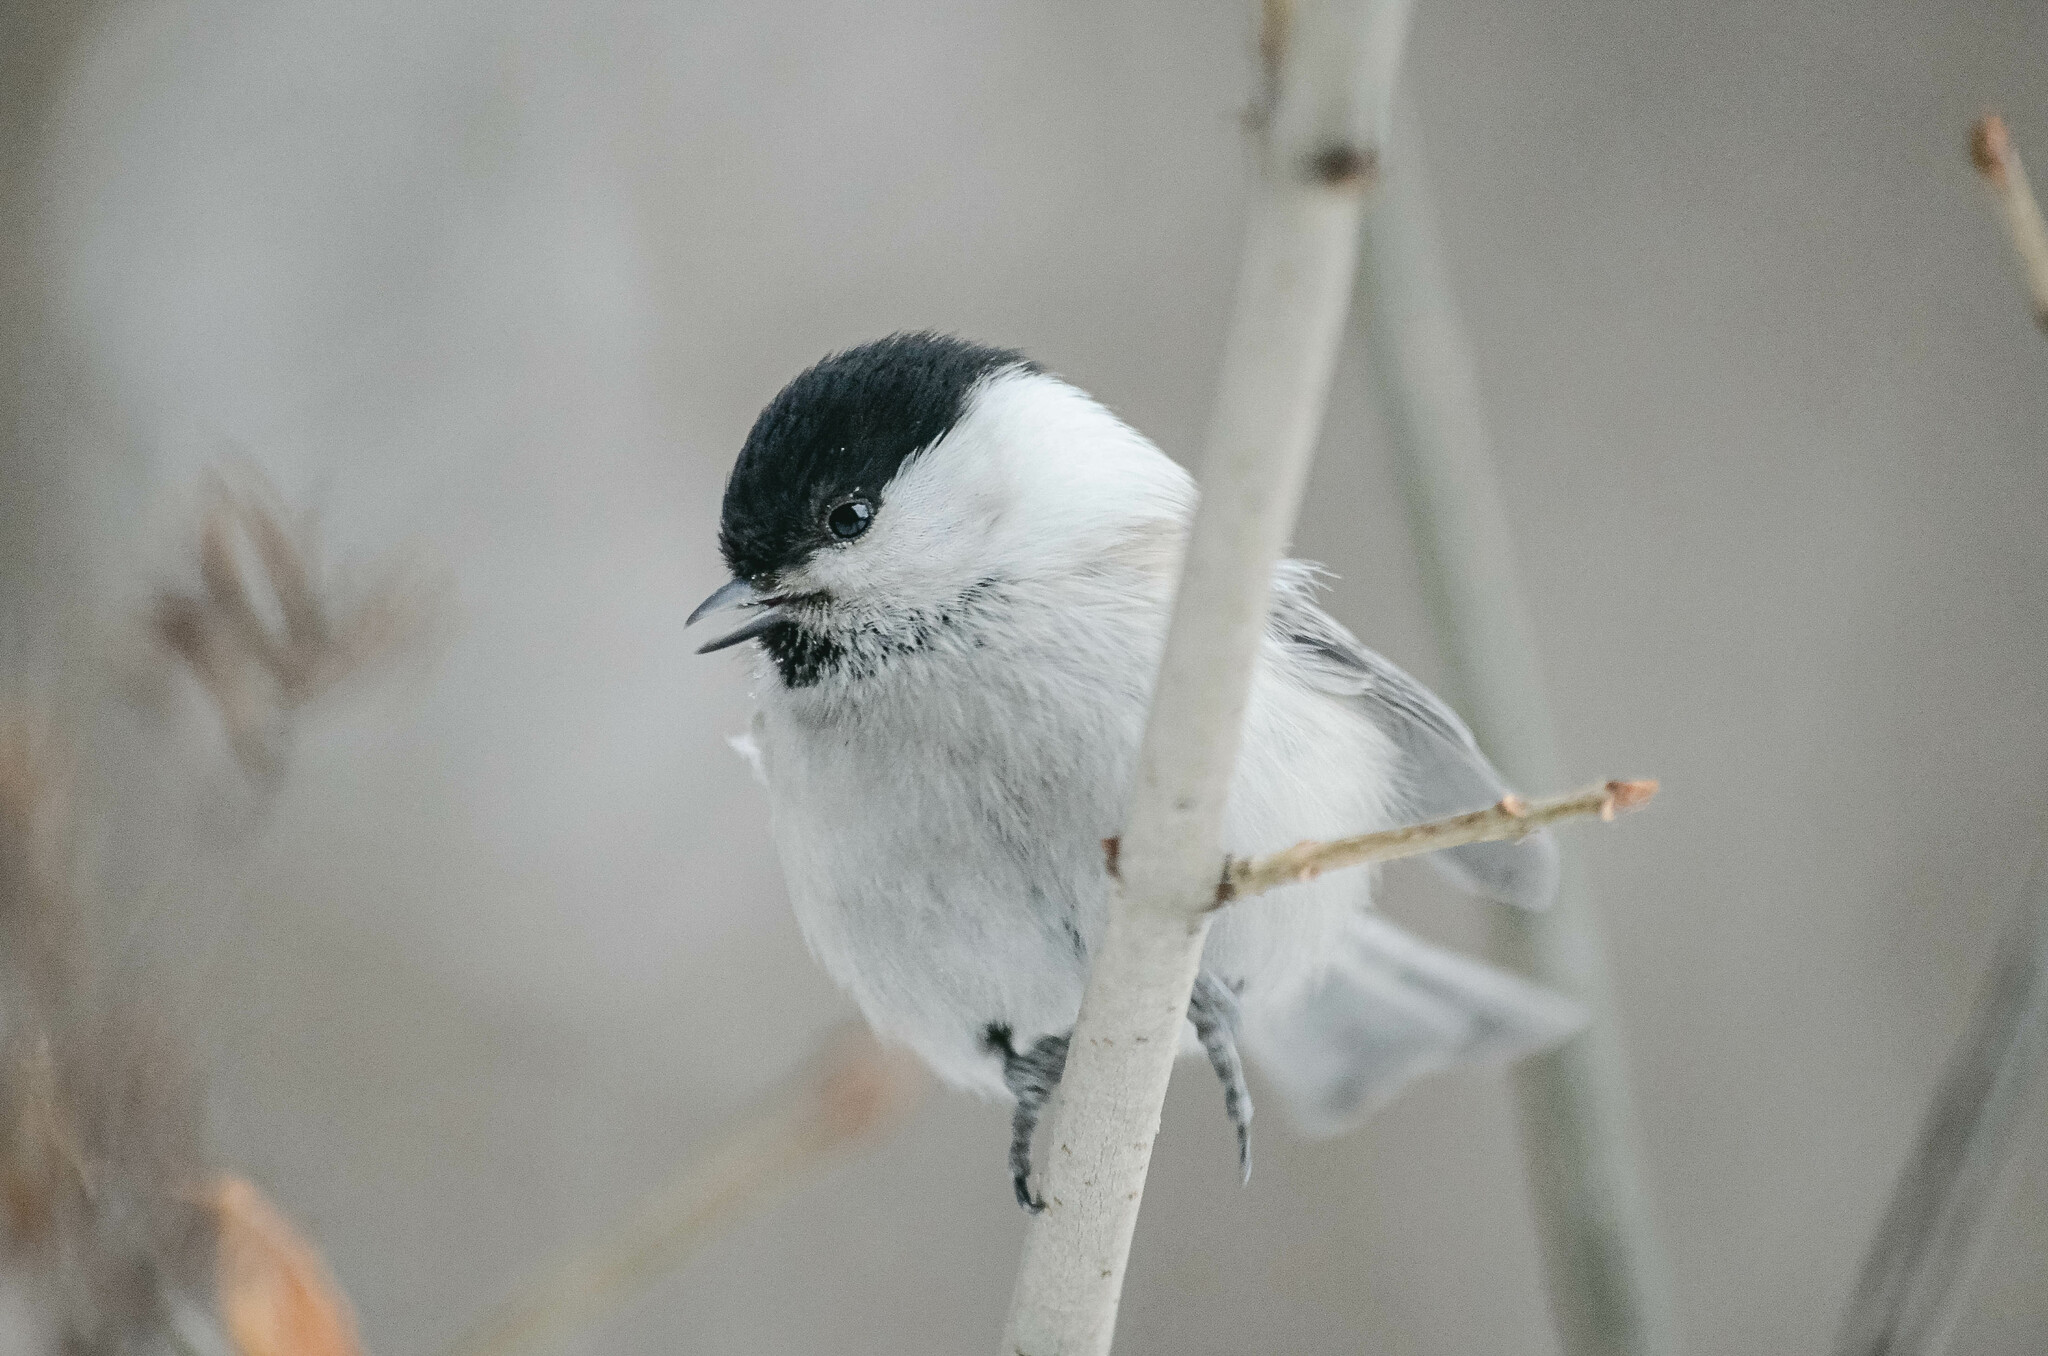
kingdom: Animalia
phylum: Chordata
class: Aves
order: Passeriformes
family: Paridae
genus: Poecile
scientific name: Poecile montanus
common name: Willow tit
